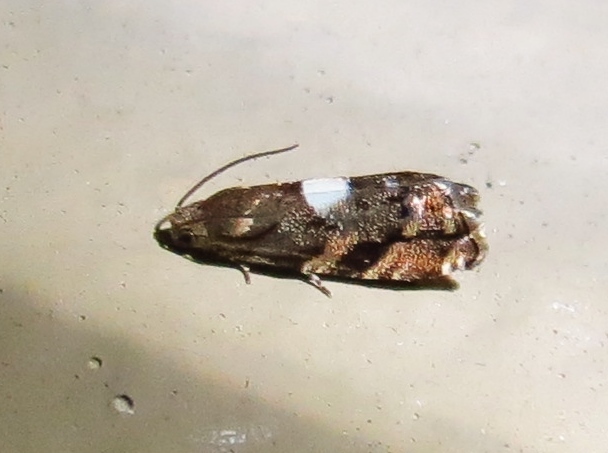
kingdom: Animalia
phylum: Arthropoda
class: Insecta
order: Lepidoptera
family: Tortricidae
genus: Cydia
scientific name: Cydia albimaculana
